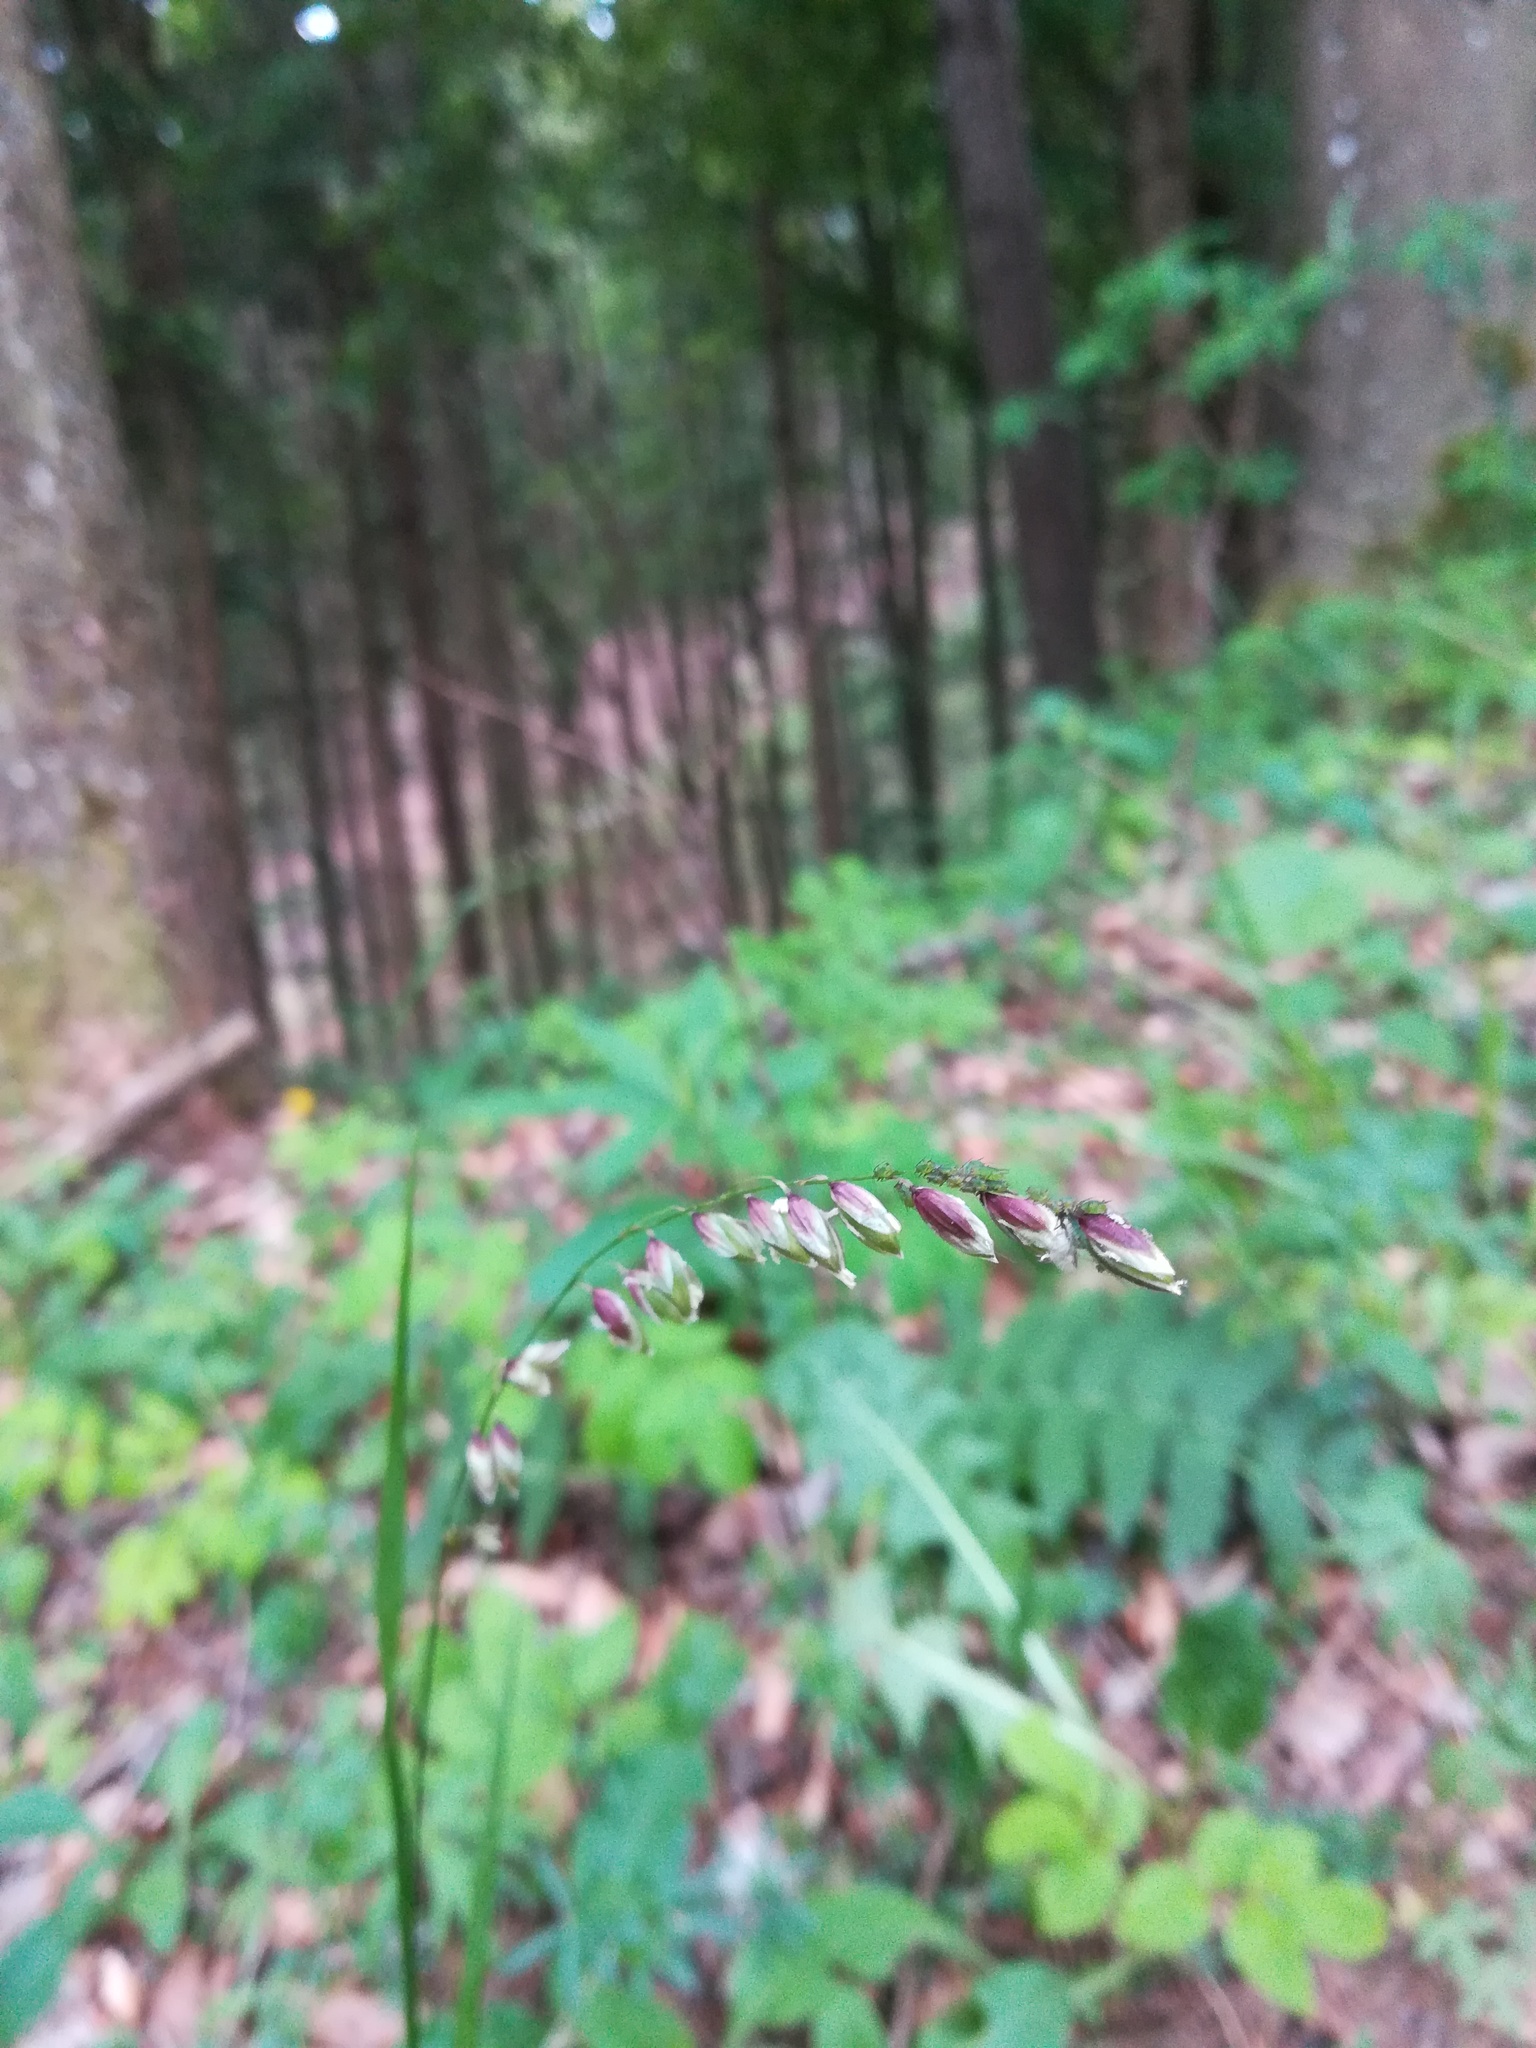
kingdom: Plantae
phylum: Tracheophyta
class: Liliopsida
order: Poales
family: Poaceae
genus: Melica
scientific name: Melica nutans
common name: Mountain melick
